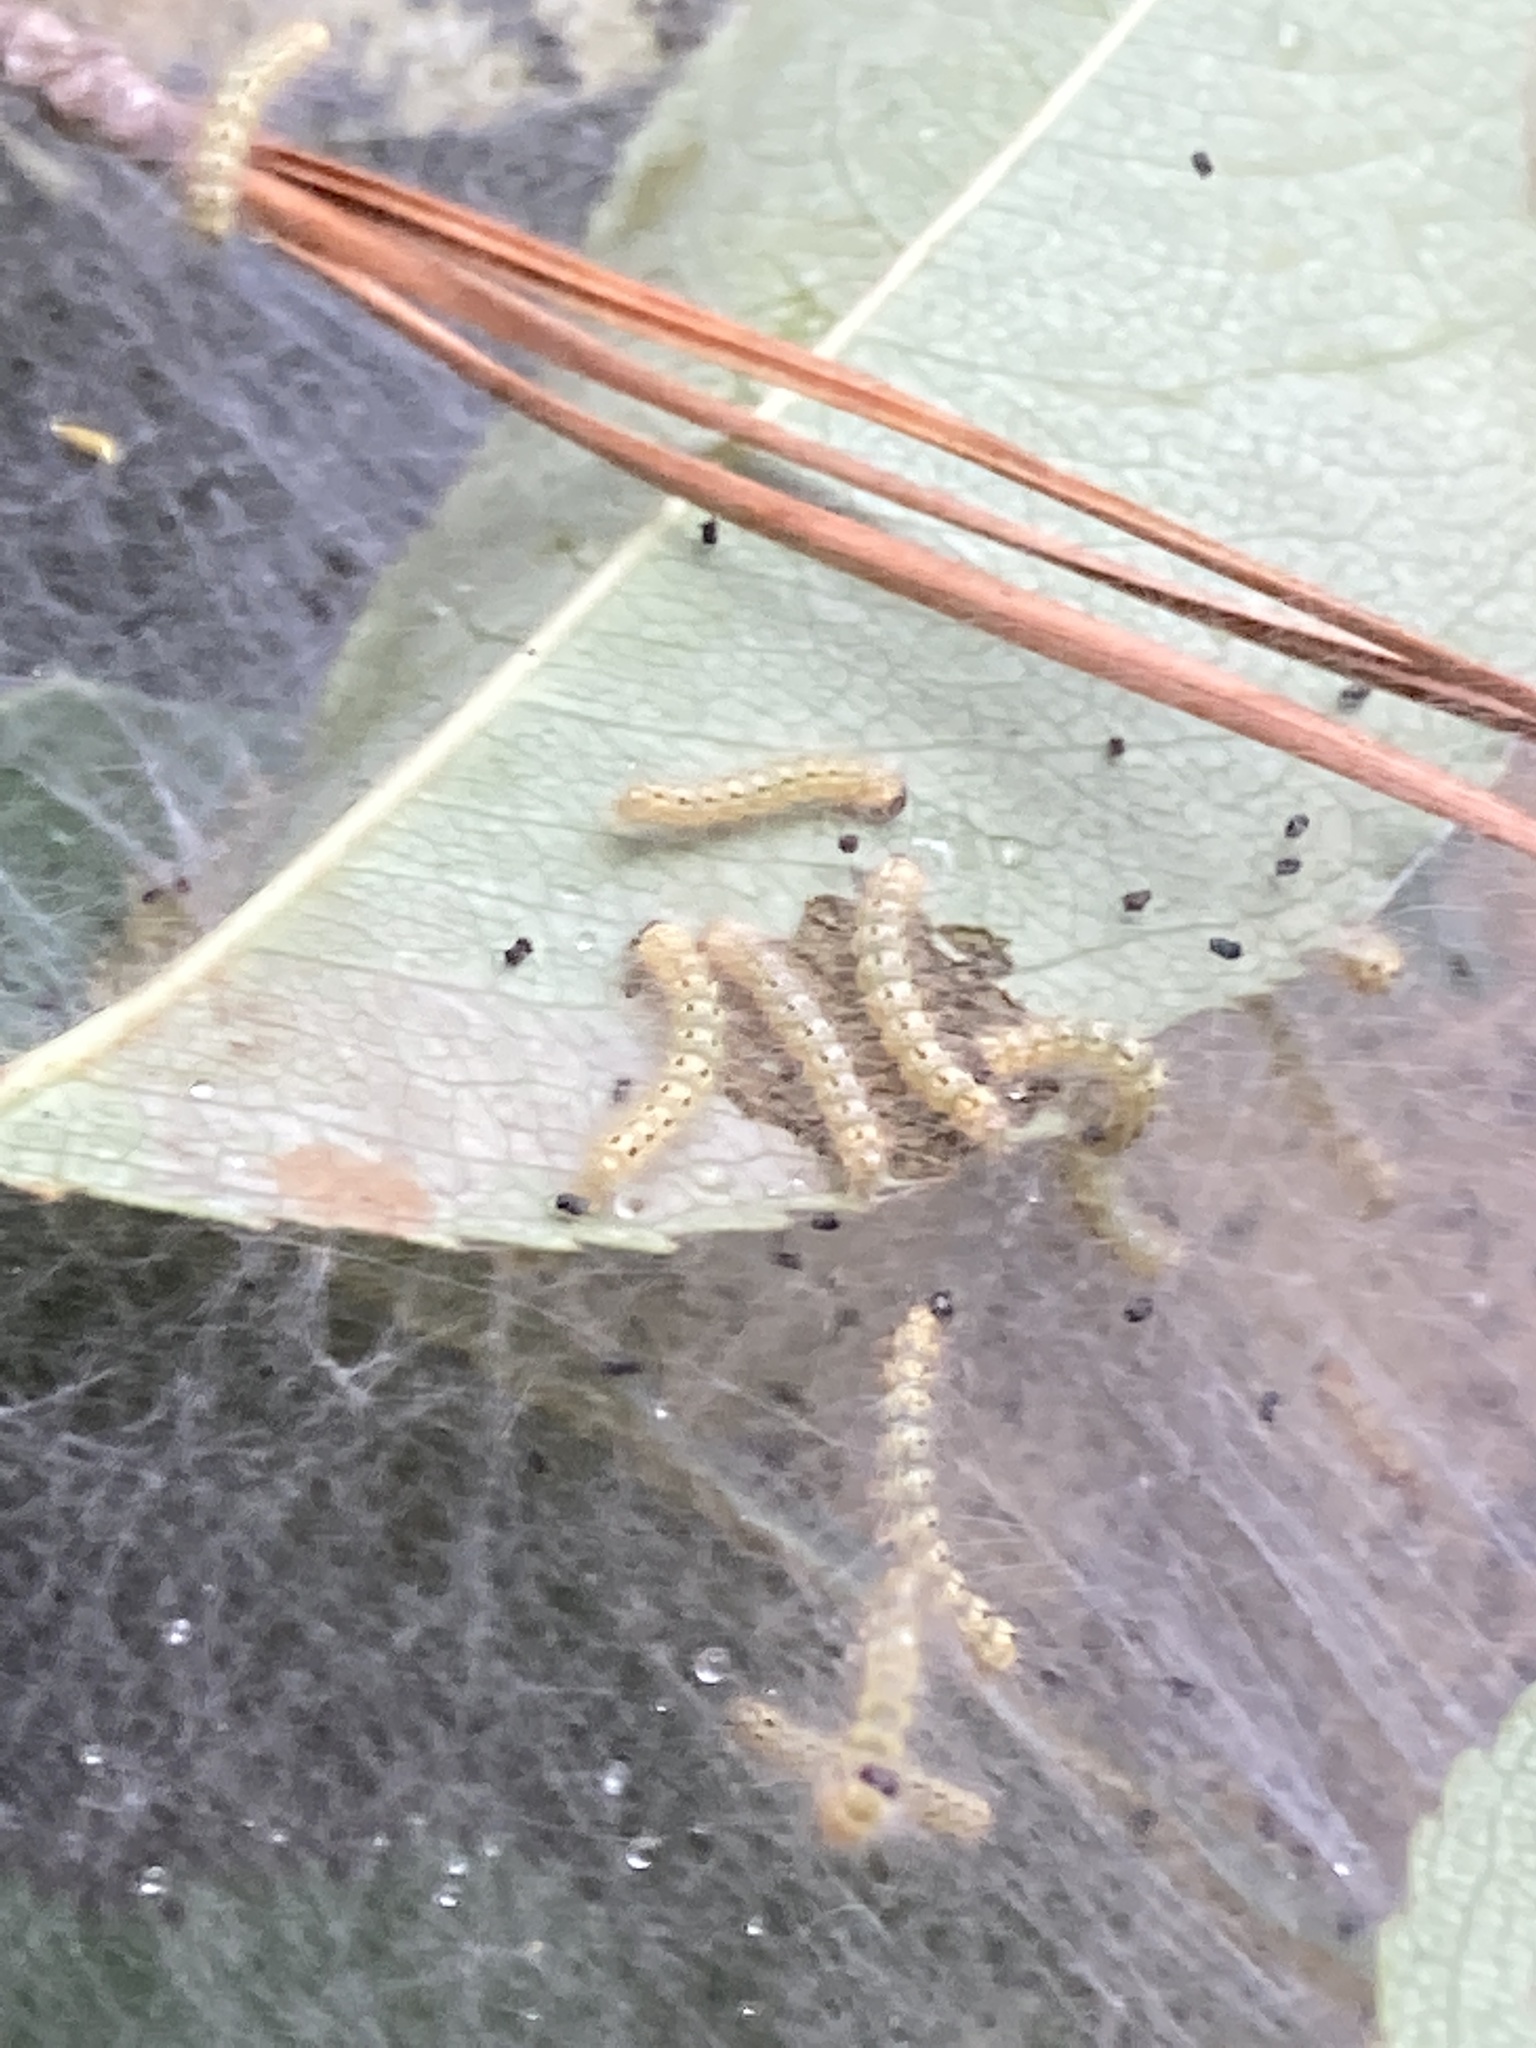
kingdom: Animalia
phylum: Arthropoda
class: Insecta
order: Lepidoptera
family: Erebidae
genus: Hyphantria
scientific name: Hyphantria cunea
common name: American white moth
